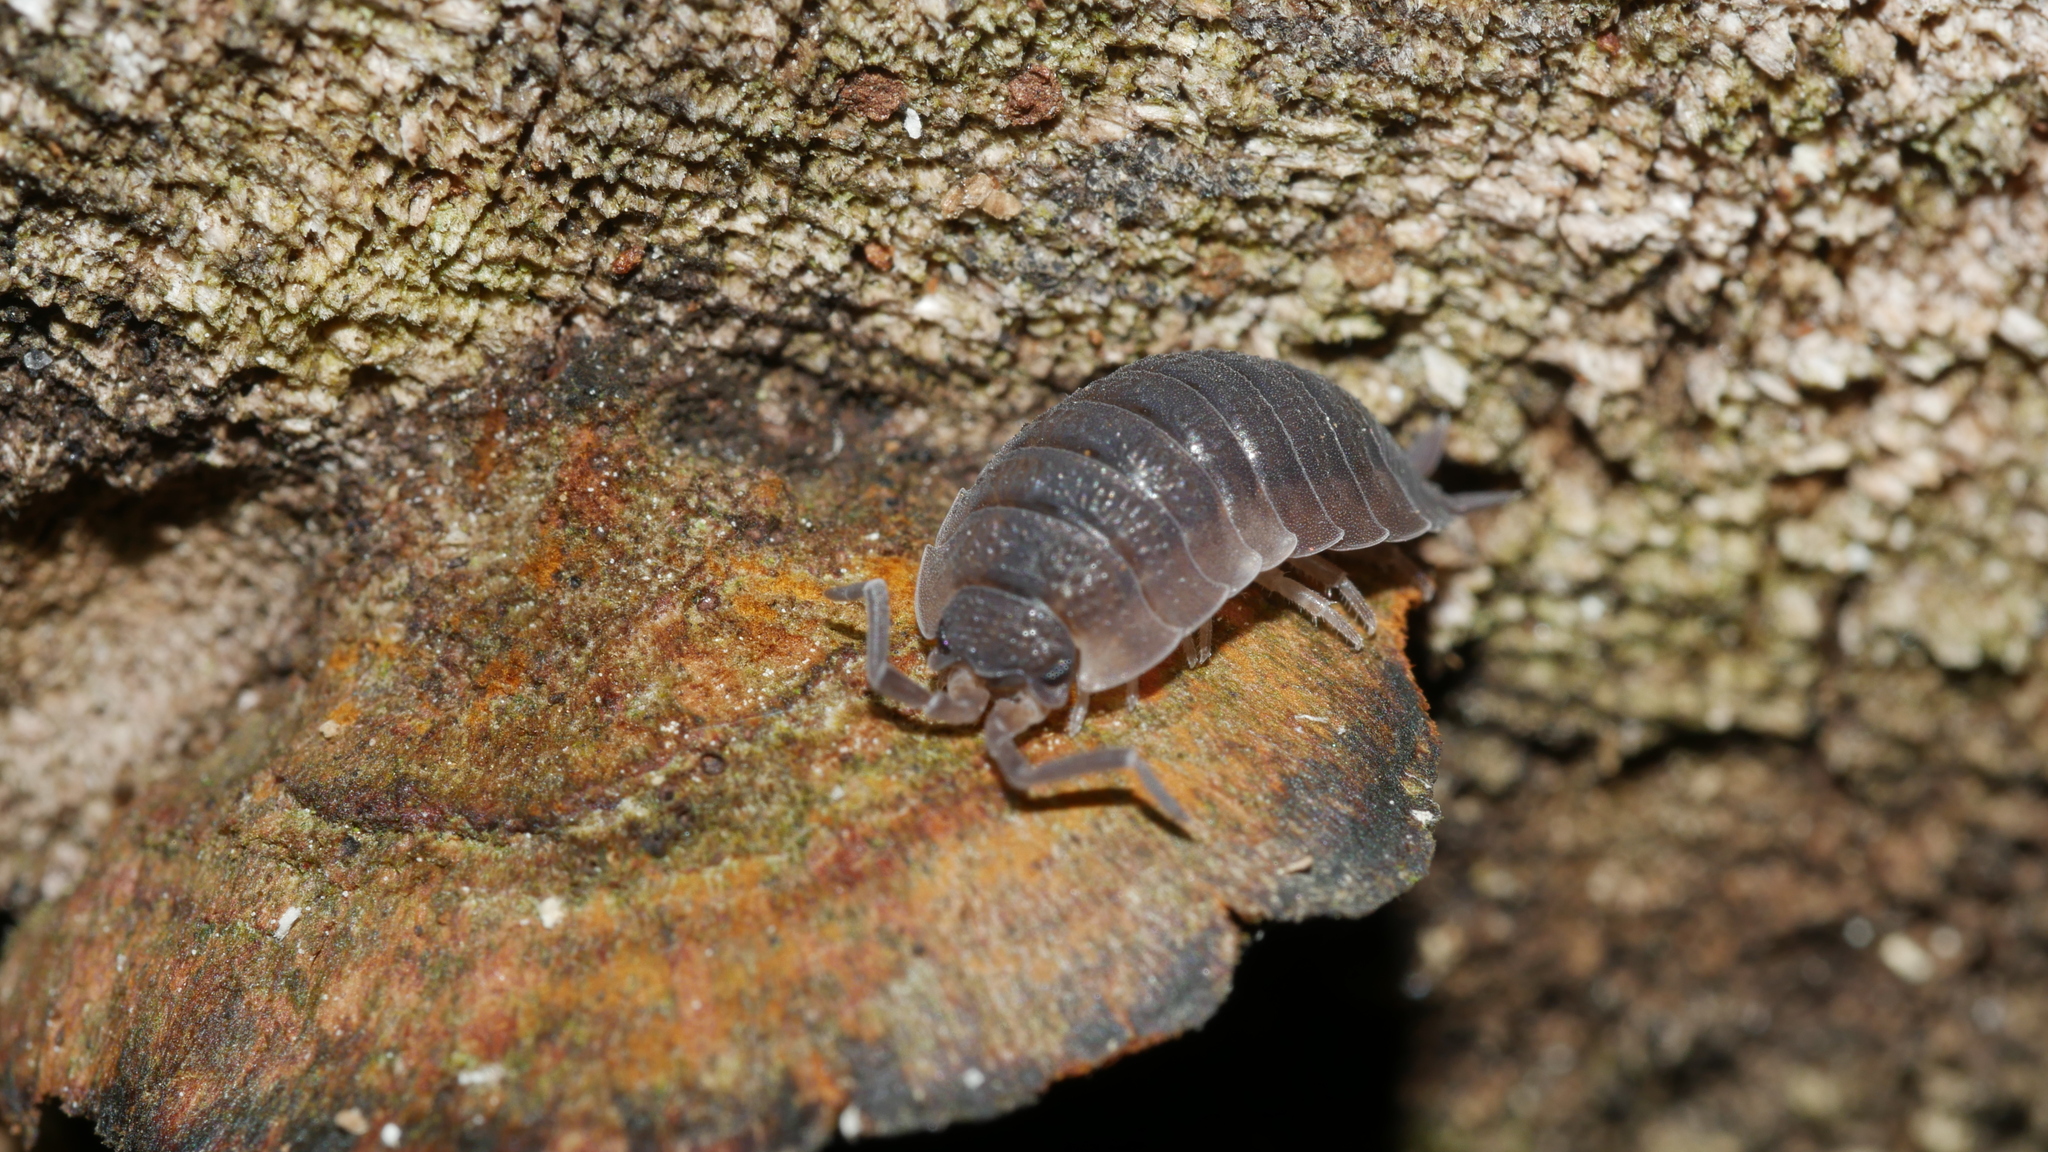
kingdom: Animalia
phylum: Arthropoda
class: Malacostraca
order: Isopoda
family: Porcellionidae
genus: Porcellio
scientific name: Porcellio scaber
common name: Common rough woodlouse
